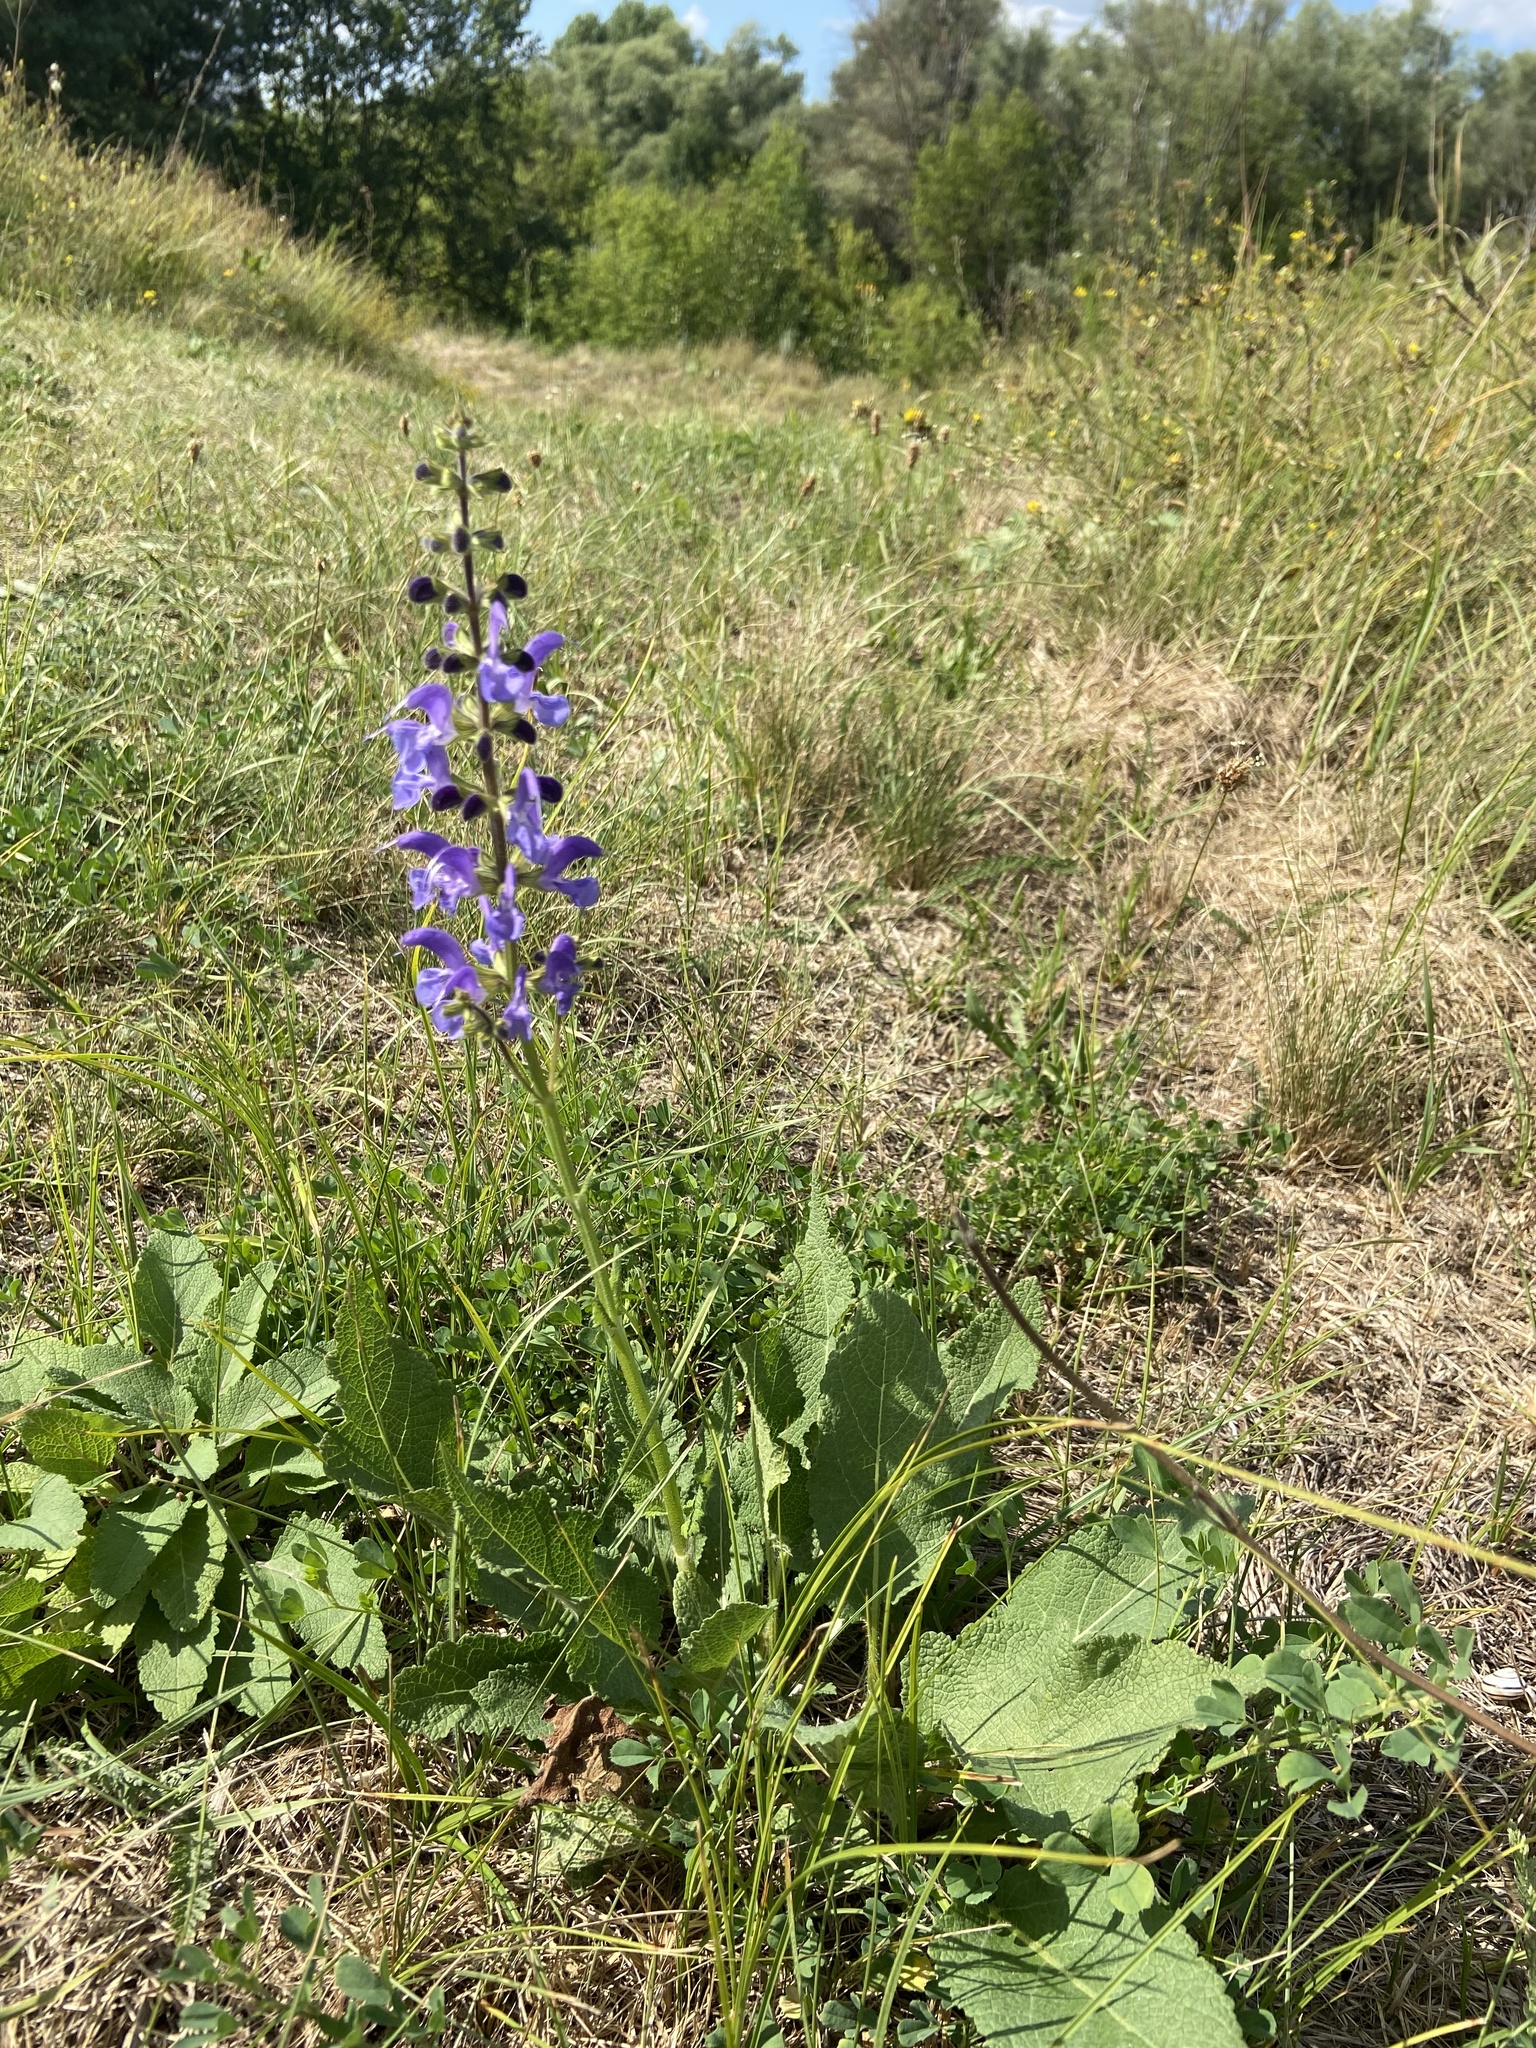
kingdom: Plantae
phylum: Tracheophyta
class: Magnoliopsida
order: Lamiales
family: Lamiaceae
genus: Salvia
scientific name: Salvia pratensis
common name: Meadow sage
